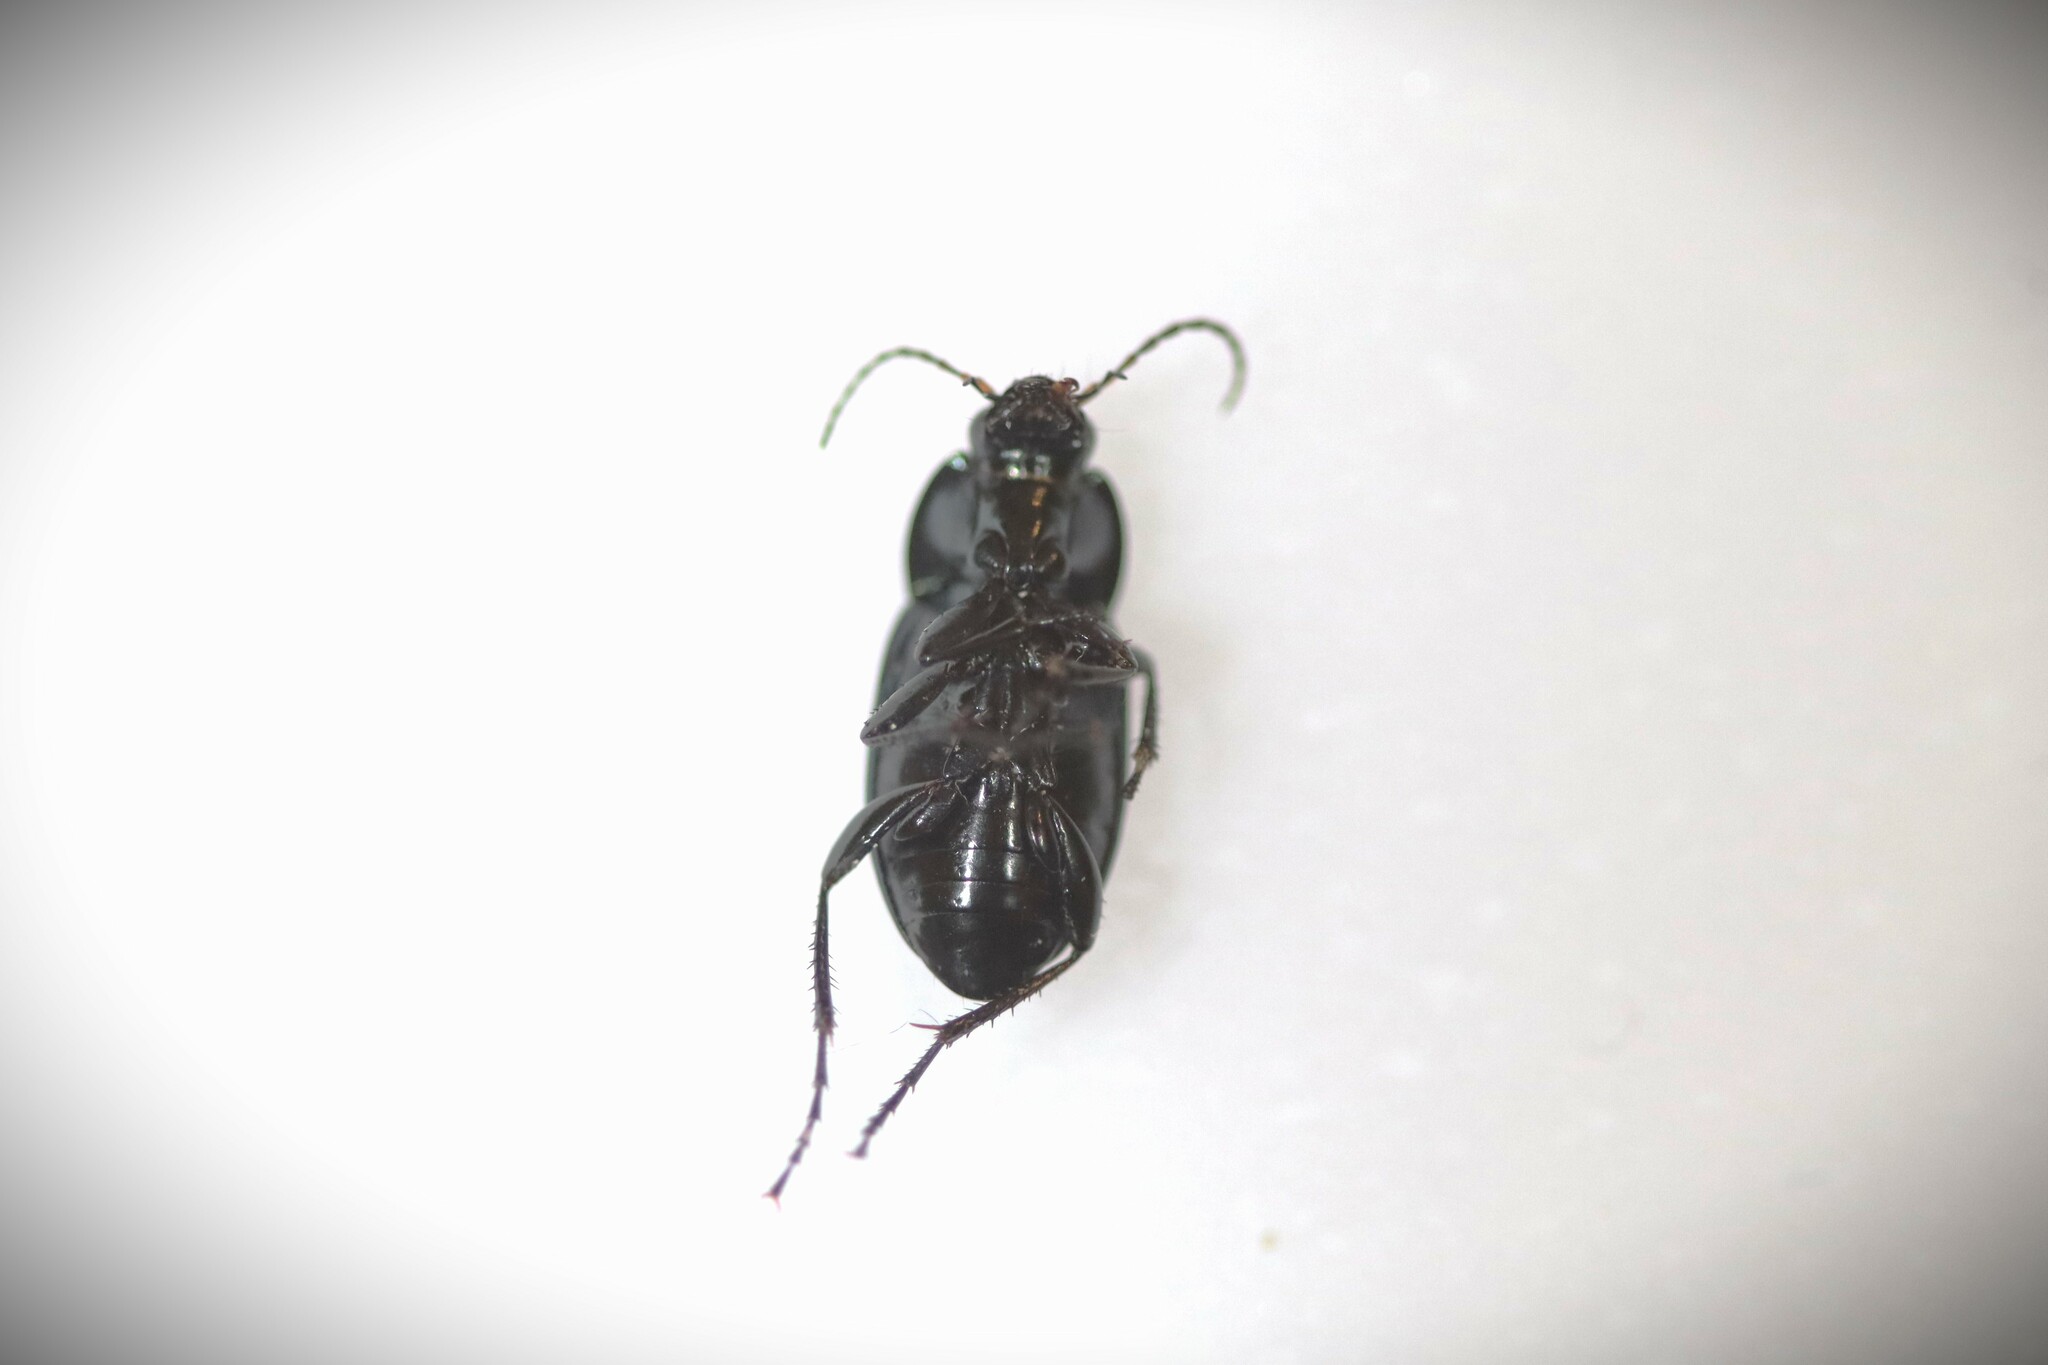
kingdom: Animalia
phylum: Arthropoda
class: Insecta
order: Coleoptera
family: Carabidae
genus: Poecilus
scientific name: Poecilus versicolor
